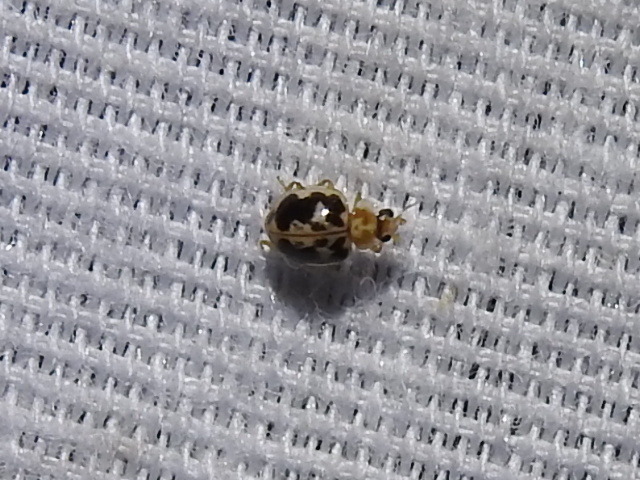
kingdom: Animalia
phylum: Arthropoda
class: Insecta
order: Coleoptera
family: Coccinellidae
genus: Psyllobora
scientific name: Psyllobora renifer
